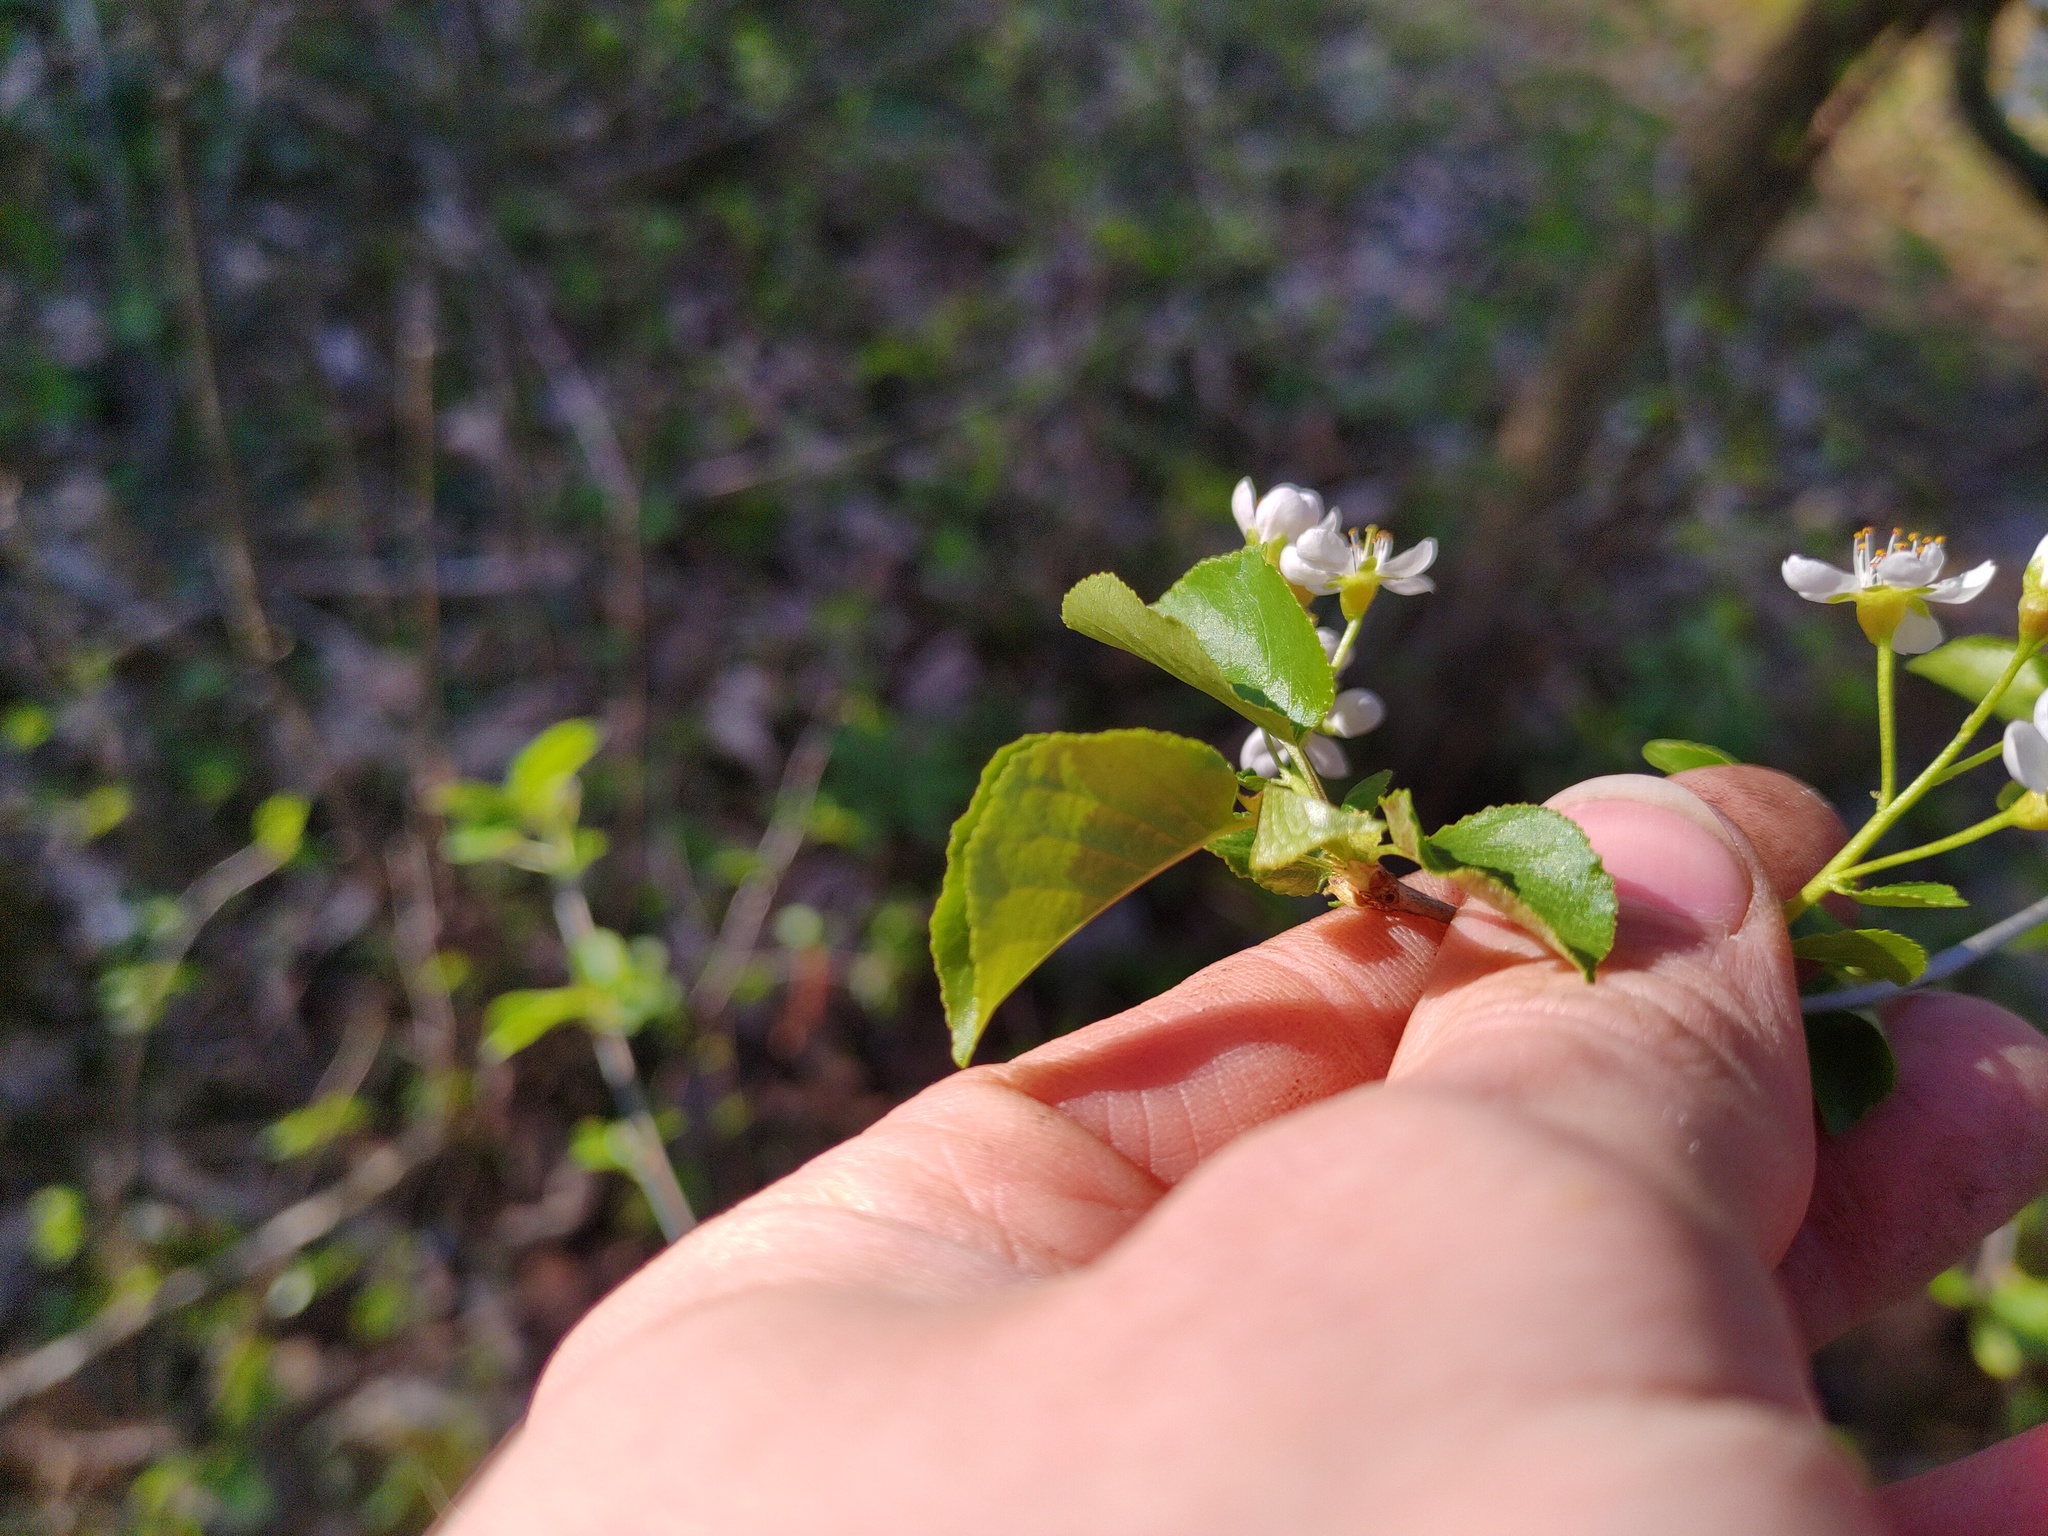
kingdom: Plantae
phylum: Tracheophyta
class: Magnoliopsida
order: Rosales
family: Rosaceae
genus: Prunus
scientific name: Prunus mahaleb
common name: Mahaleb cherry
